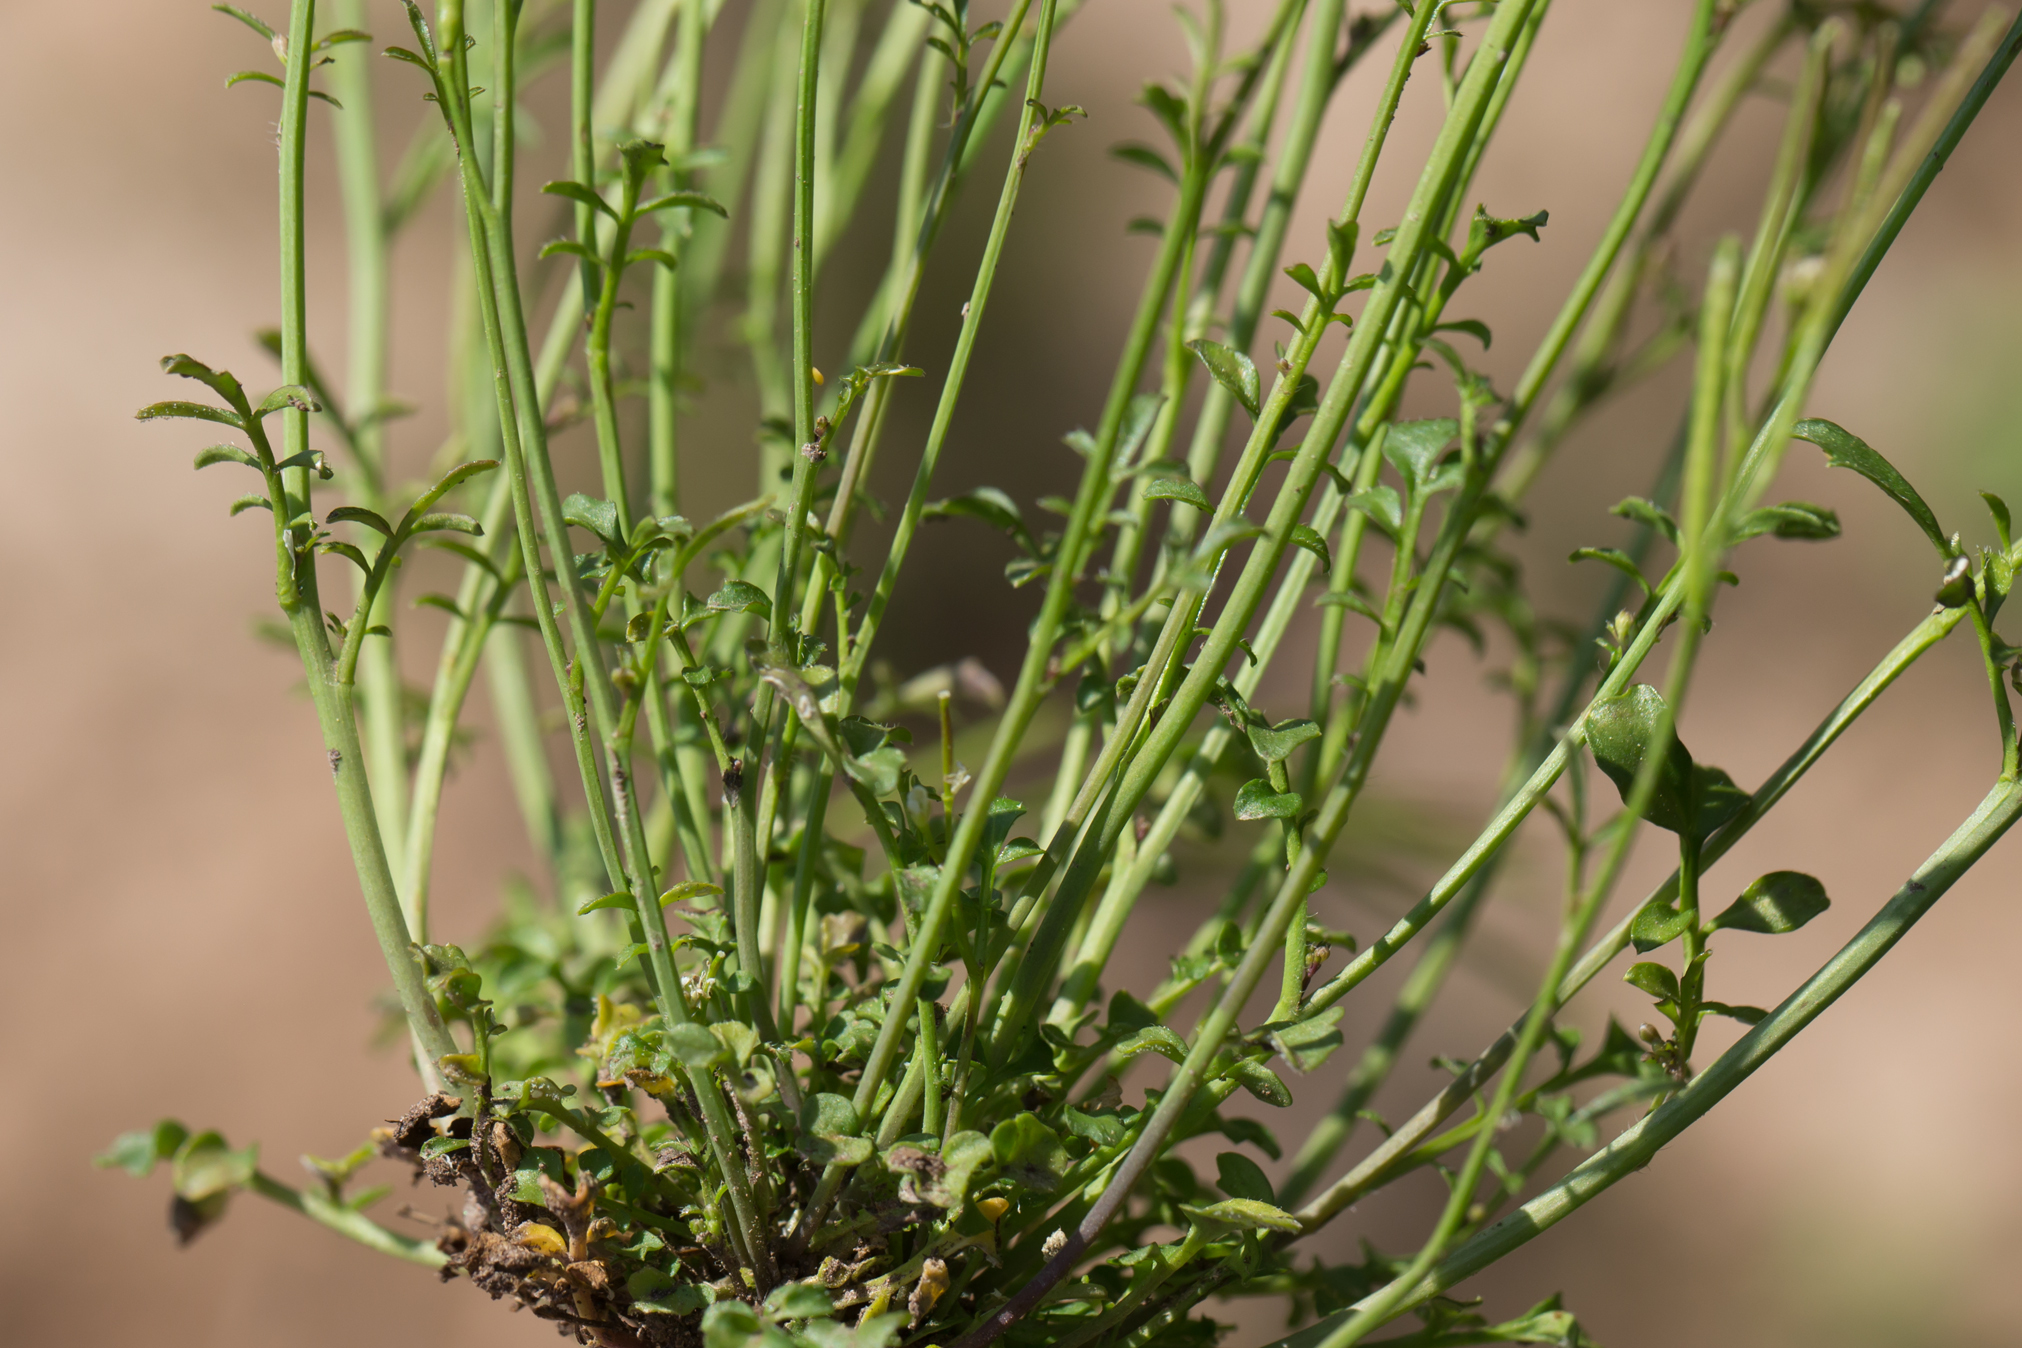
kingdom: Plantae
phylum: Tracheophyta
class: Magnoliopsida
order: Brassicales
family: Brassicaceae
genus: Cardamine
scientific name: Cardamine hirsuta
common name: Hairy bittercress
